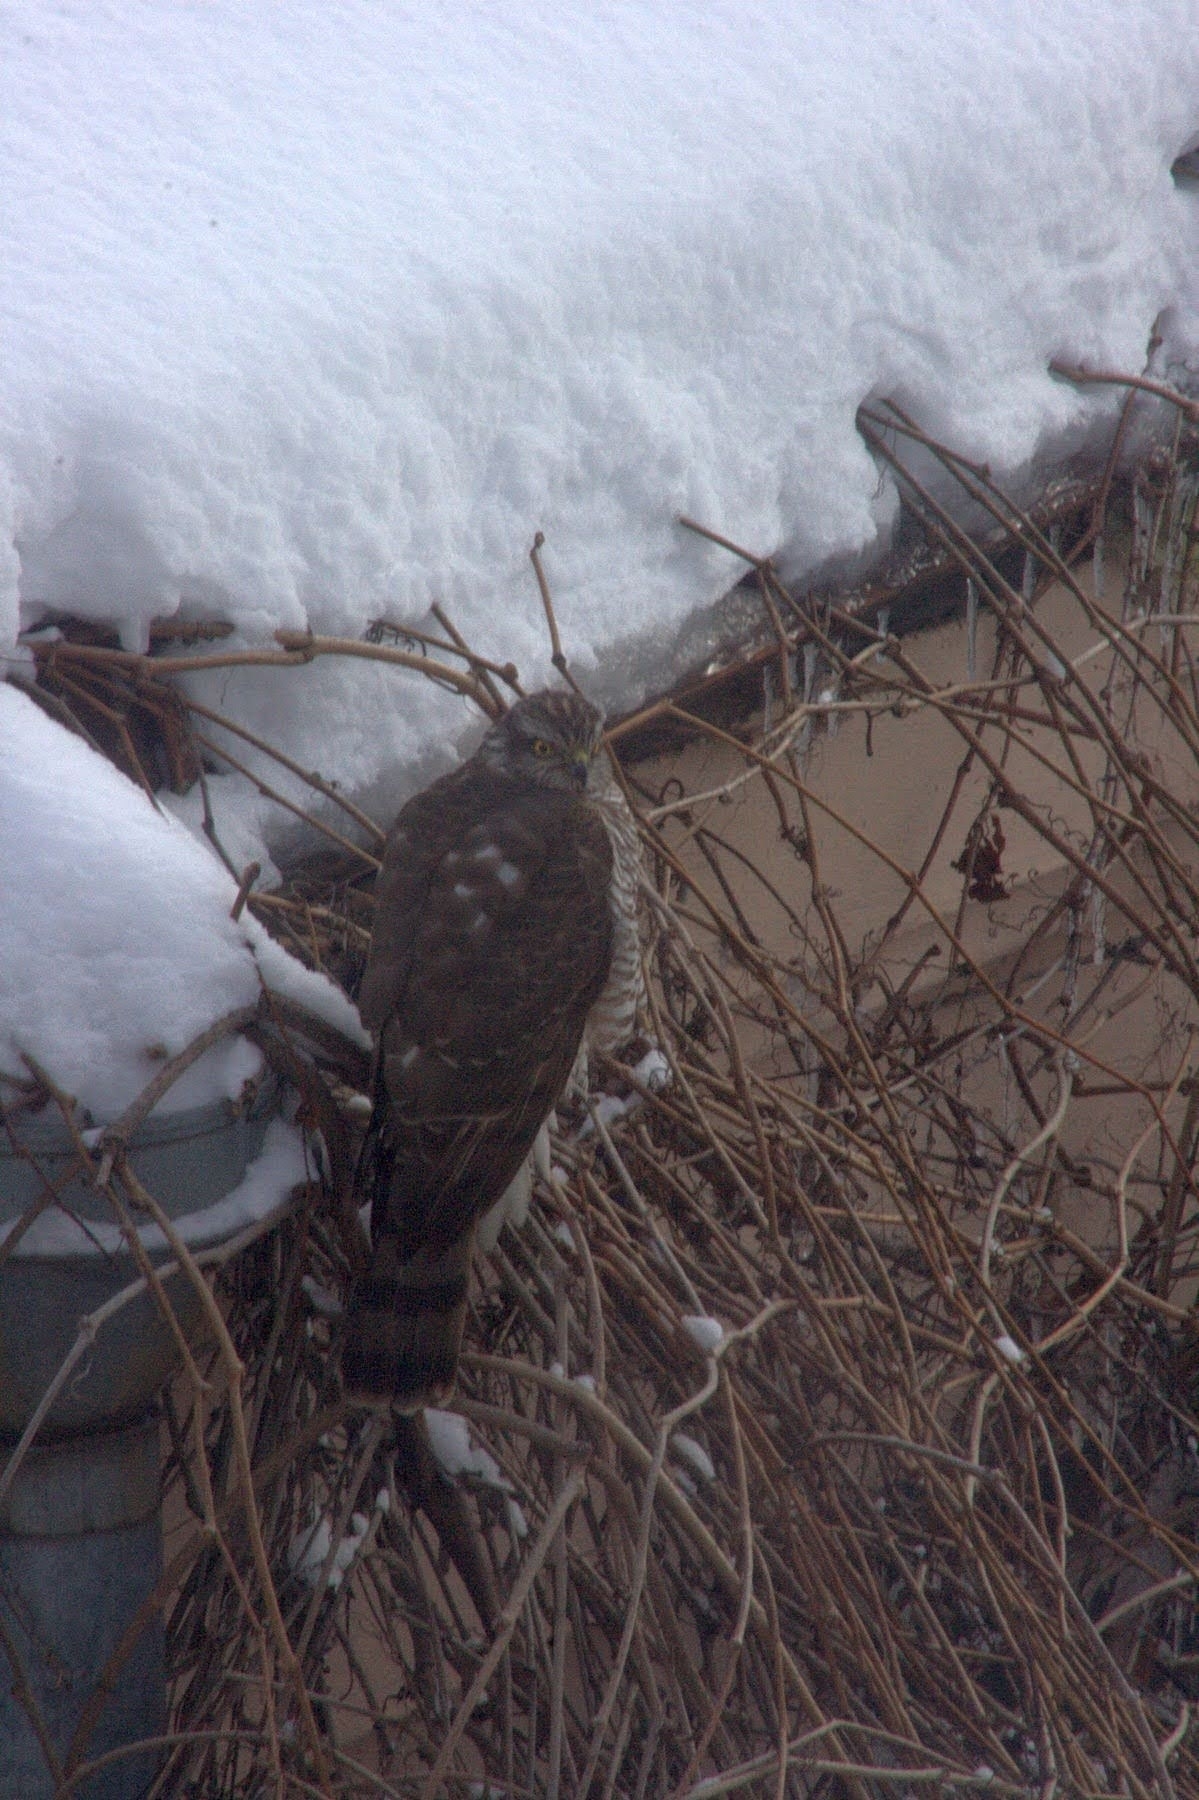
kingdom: Animalia
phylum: Chordata
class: Aves
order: Accipitriformes
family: Accipitridae
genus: Accipiter
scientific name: Accipiter nisus
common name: Eurasian sparrowhawk
